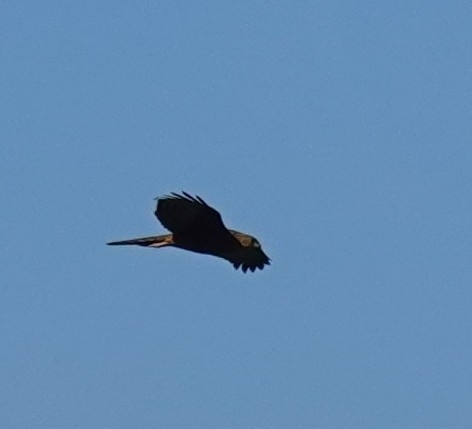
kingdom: Animalia
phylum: Chordata
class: Aves
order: Accipitriformes
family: Accipitridae
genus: Accipiter
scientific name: Accipiter rufiventris
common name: Rufous-breasted sparrowhawk
